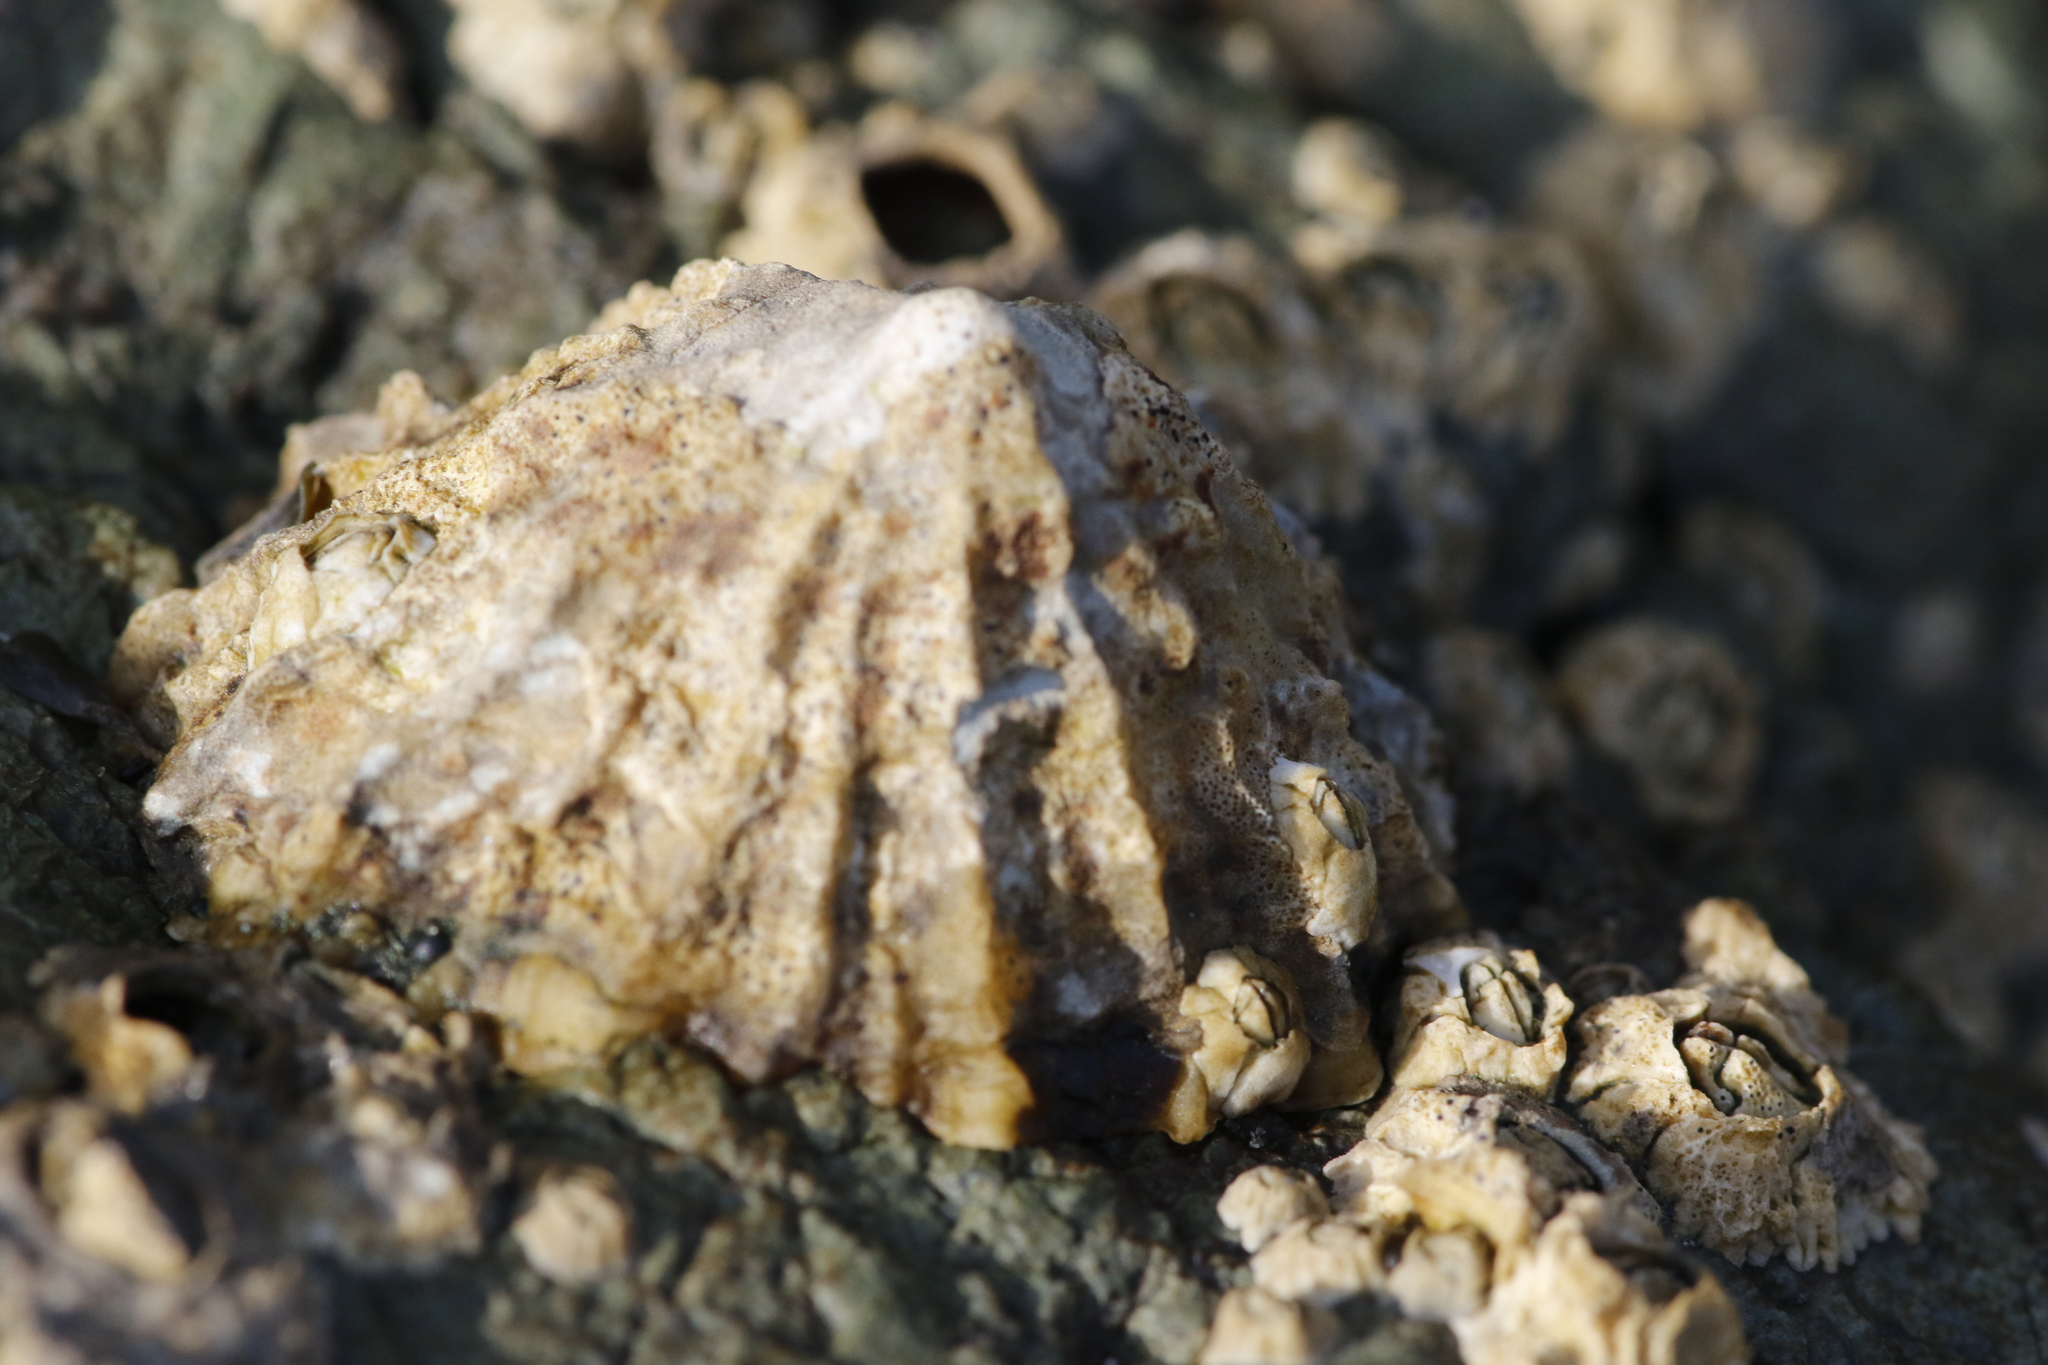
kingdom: Animalia
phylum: Mollusca
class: Gastropoda
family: Patellidae
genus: Patella
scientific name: Patella vulgata
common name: Common limpet
